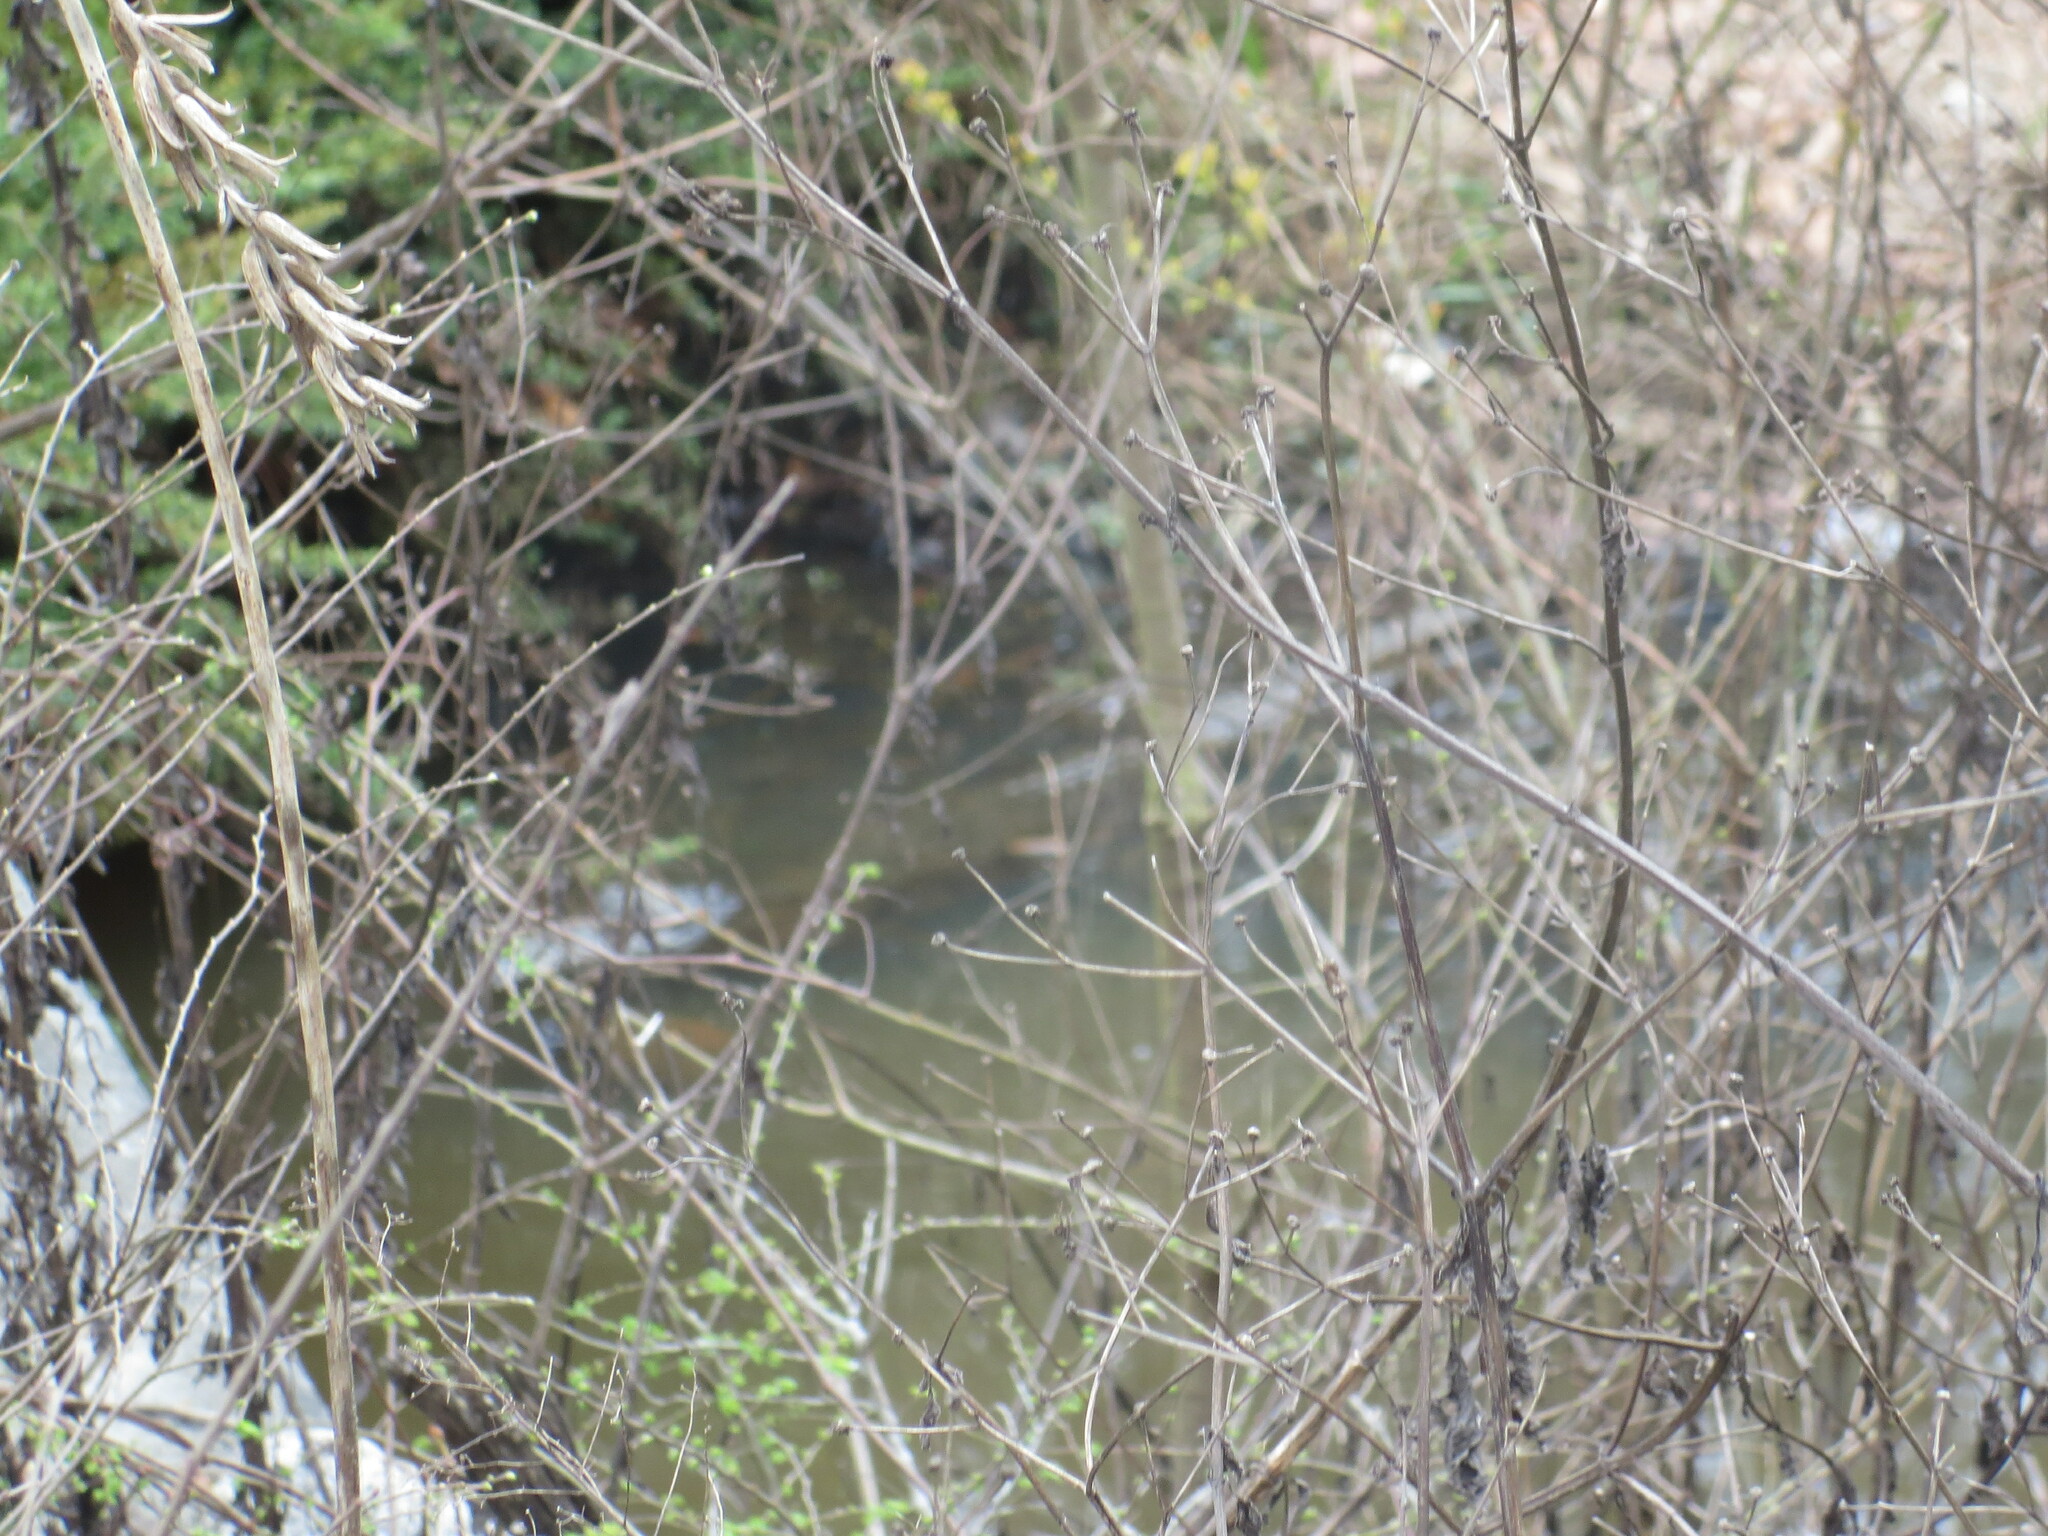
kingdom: Animalia
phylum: Chordata
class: Crocodylia
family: Alligatoridae
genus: Alligator
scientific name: Alligator mississippiensis
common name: American alligator
